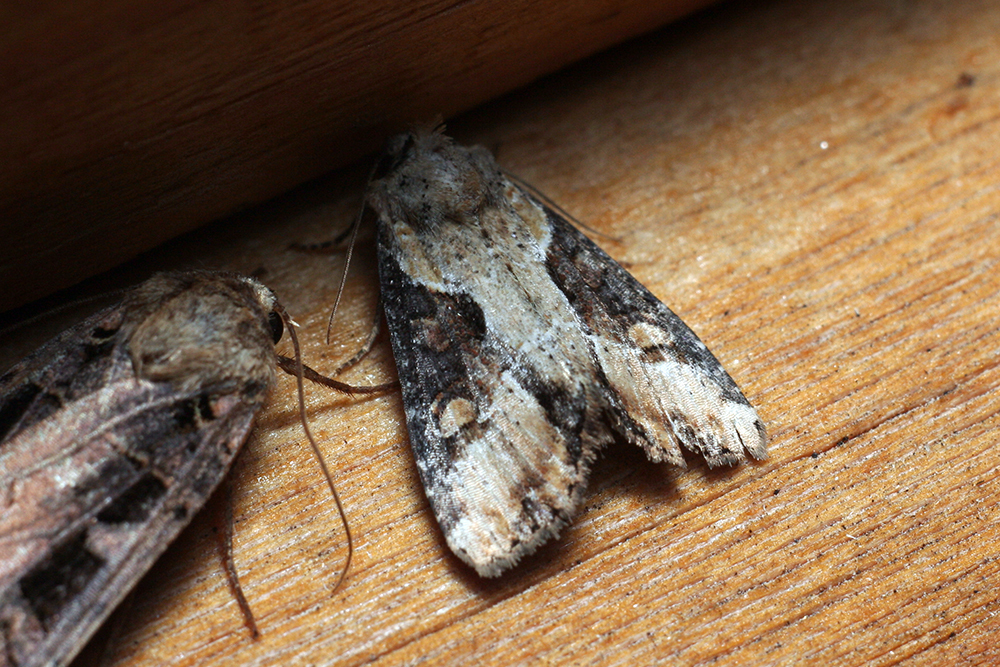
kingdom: Animalia
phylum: Arthropoda
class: Insecta
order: Lepidoptera
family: Noctuidae
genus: Lateroligia
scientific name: Lateroligia ophiogramma
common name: Double lobed
